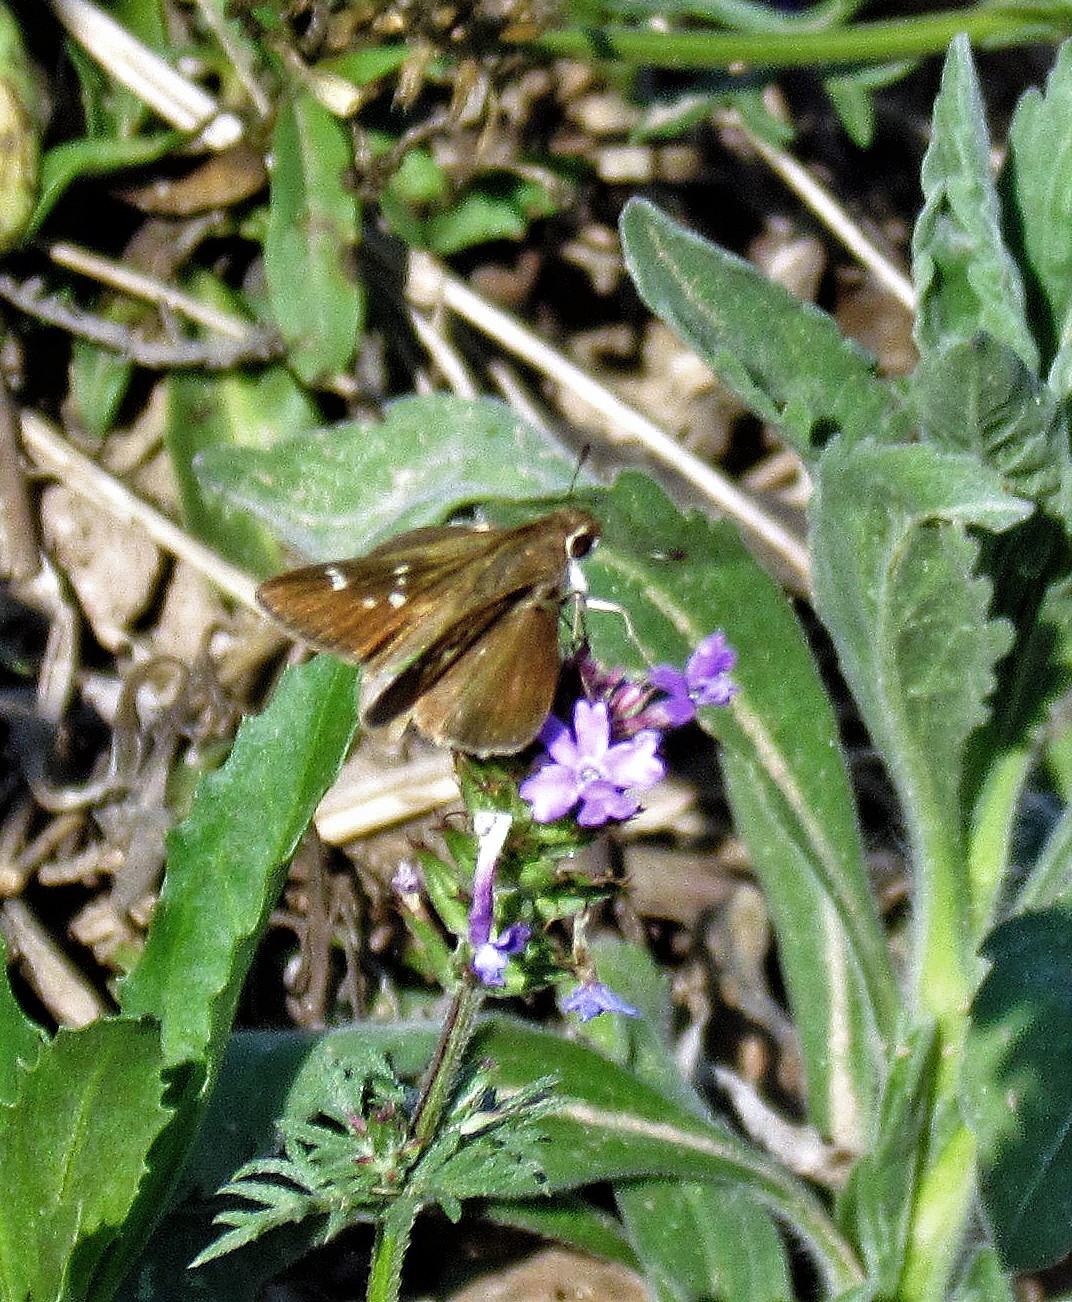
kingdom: Animalia
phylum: Arthropoda
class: Insecta
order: Lepidoptera
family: Hesperiidae
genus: Lerodea
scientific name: Lerodea eufala
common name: Eufala skipper
